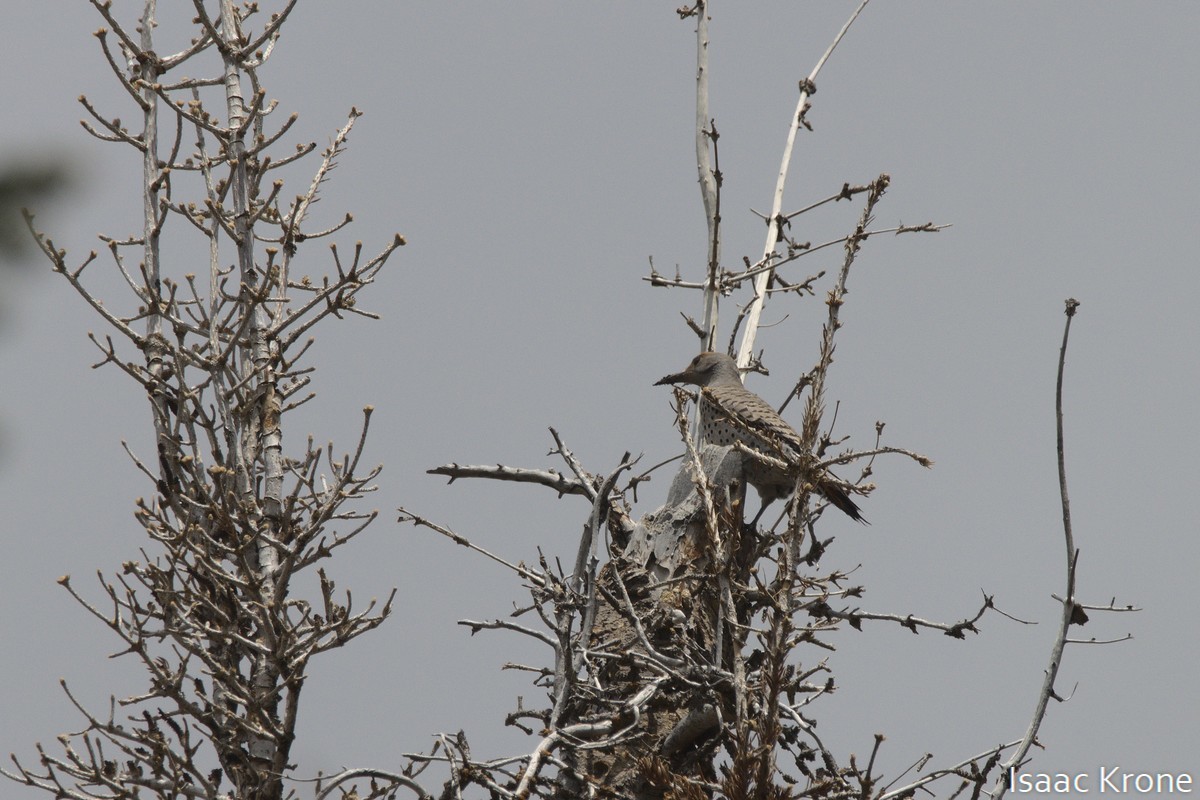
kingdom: Animalia
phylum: Chordata
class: Aves
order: Piciformes
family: Picidae
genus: Colaptes
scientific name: Colaptes auratus
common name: Northern flicker
